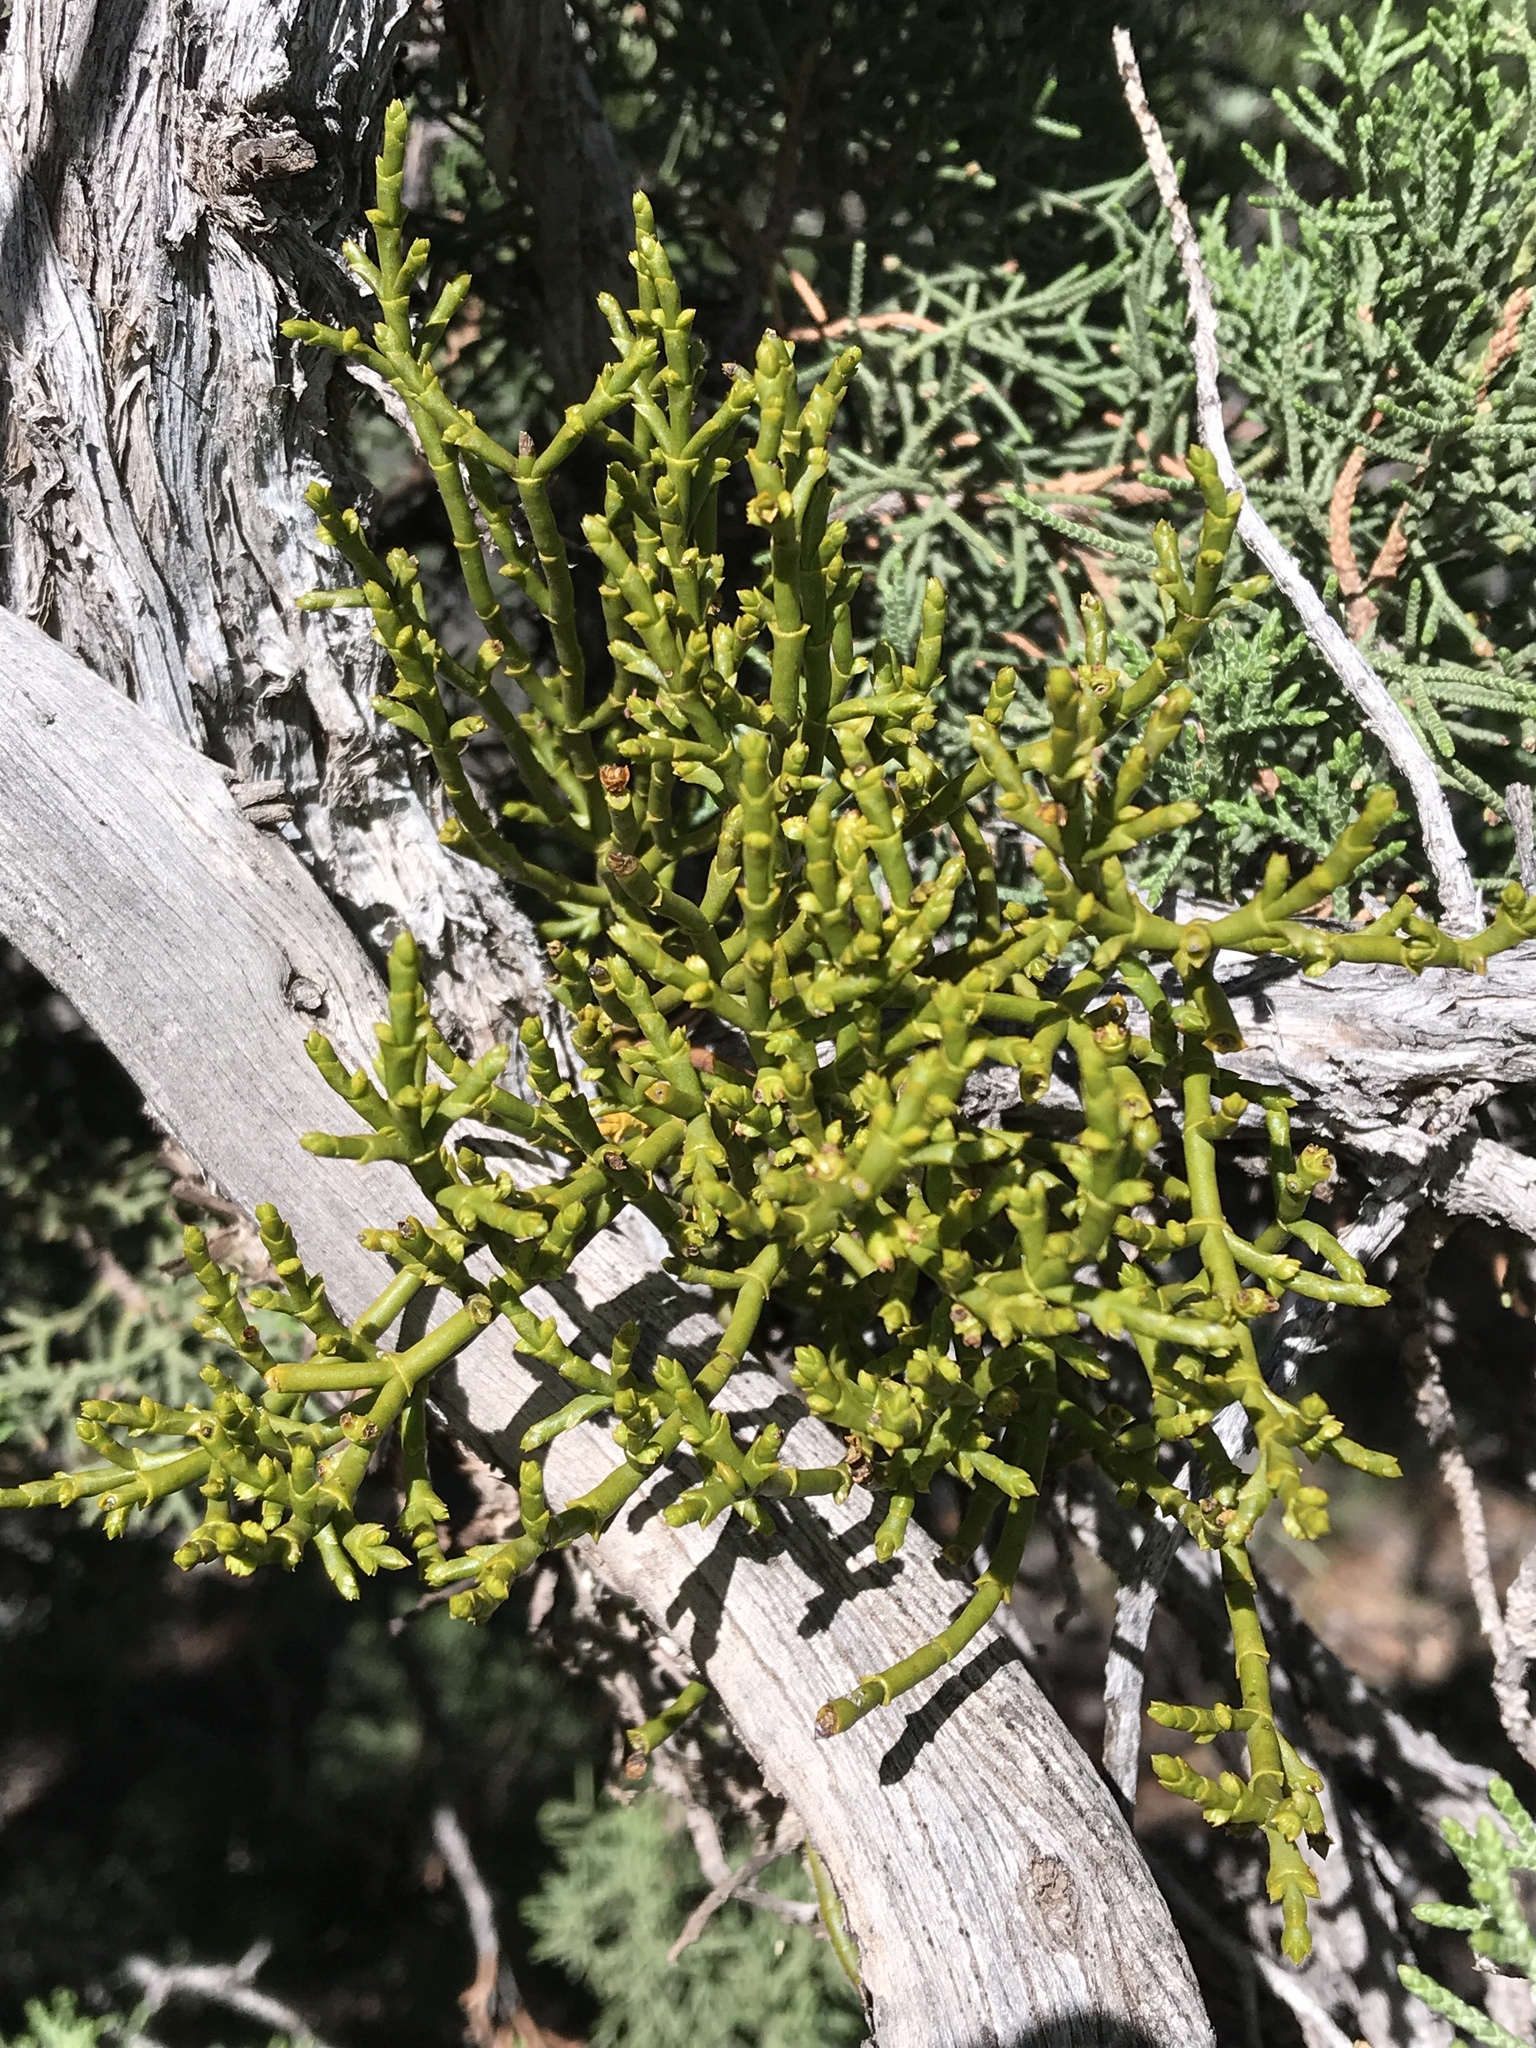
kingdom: Plantae
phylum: Tracheophyta
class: Magnoliopsida
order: Santalales
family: Viscaceae
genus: Phoradendron
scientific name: Phoradendron juniperinum
